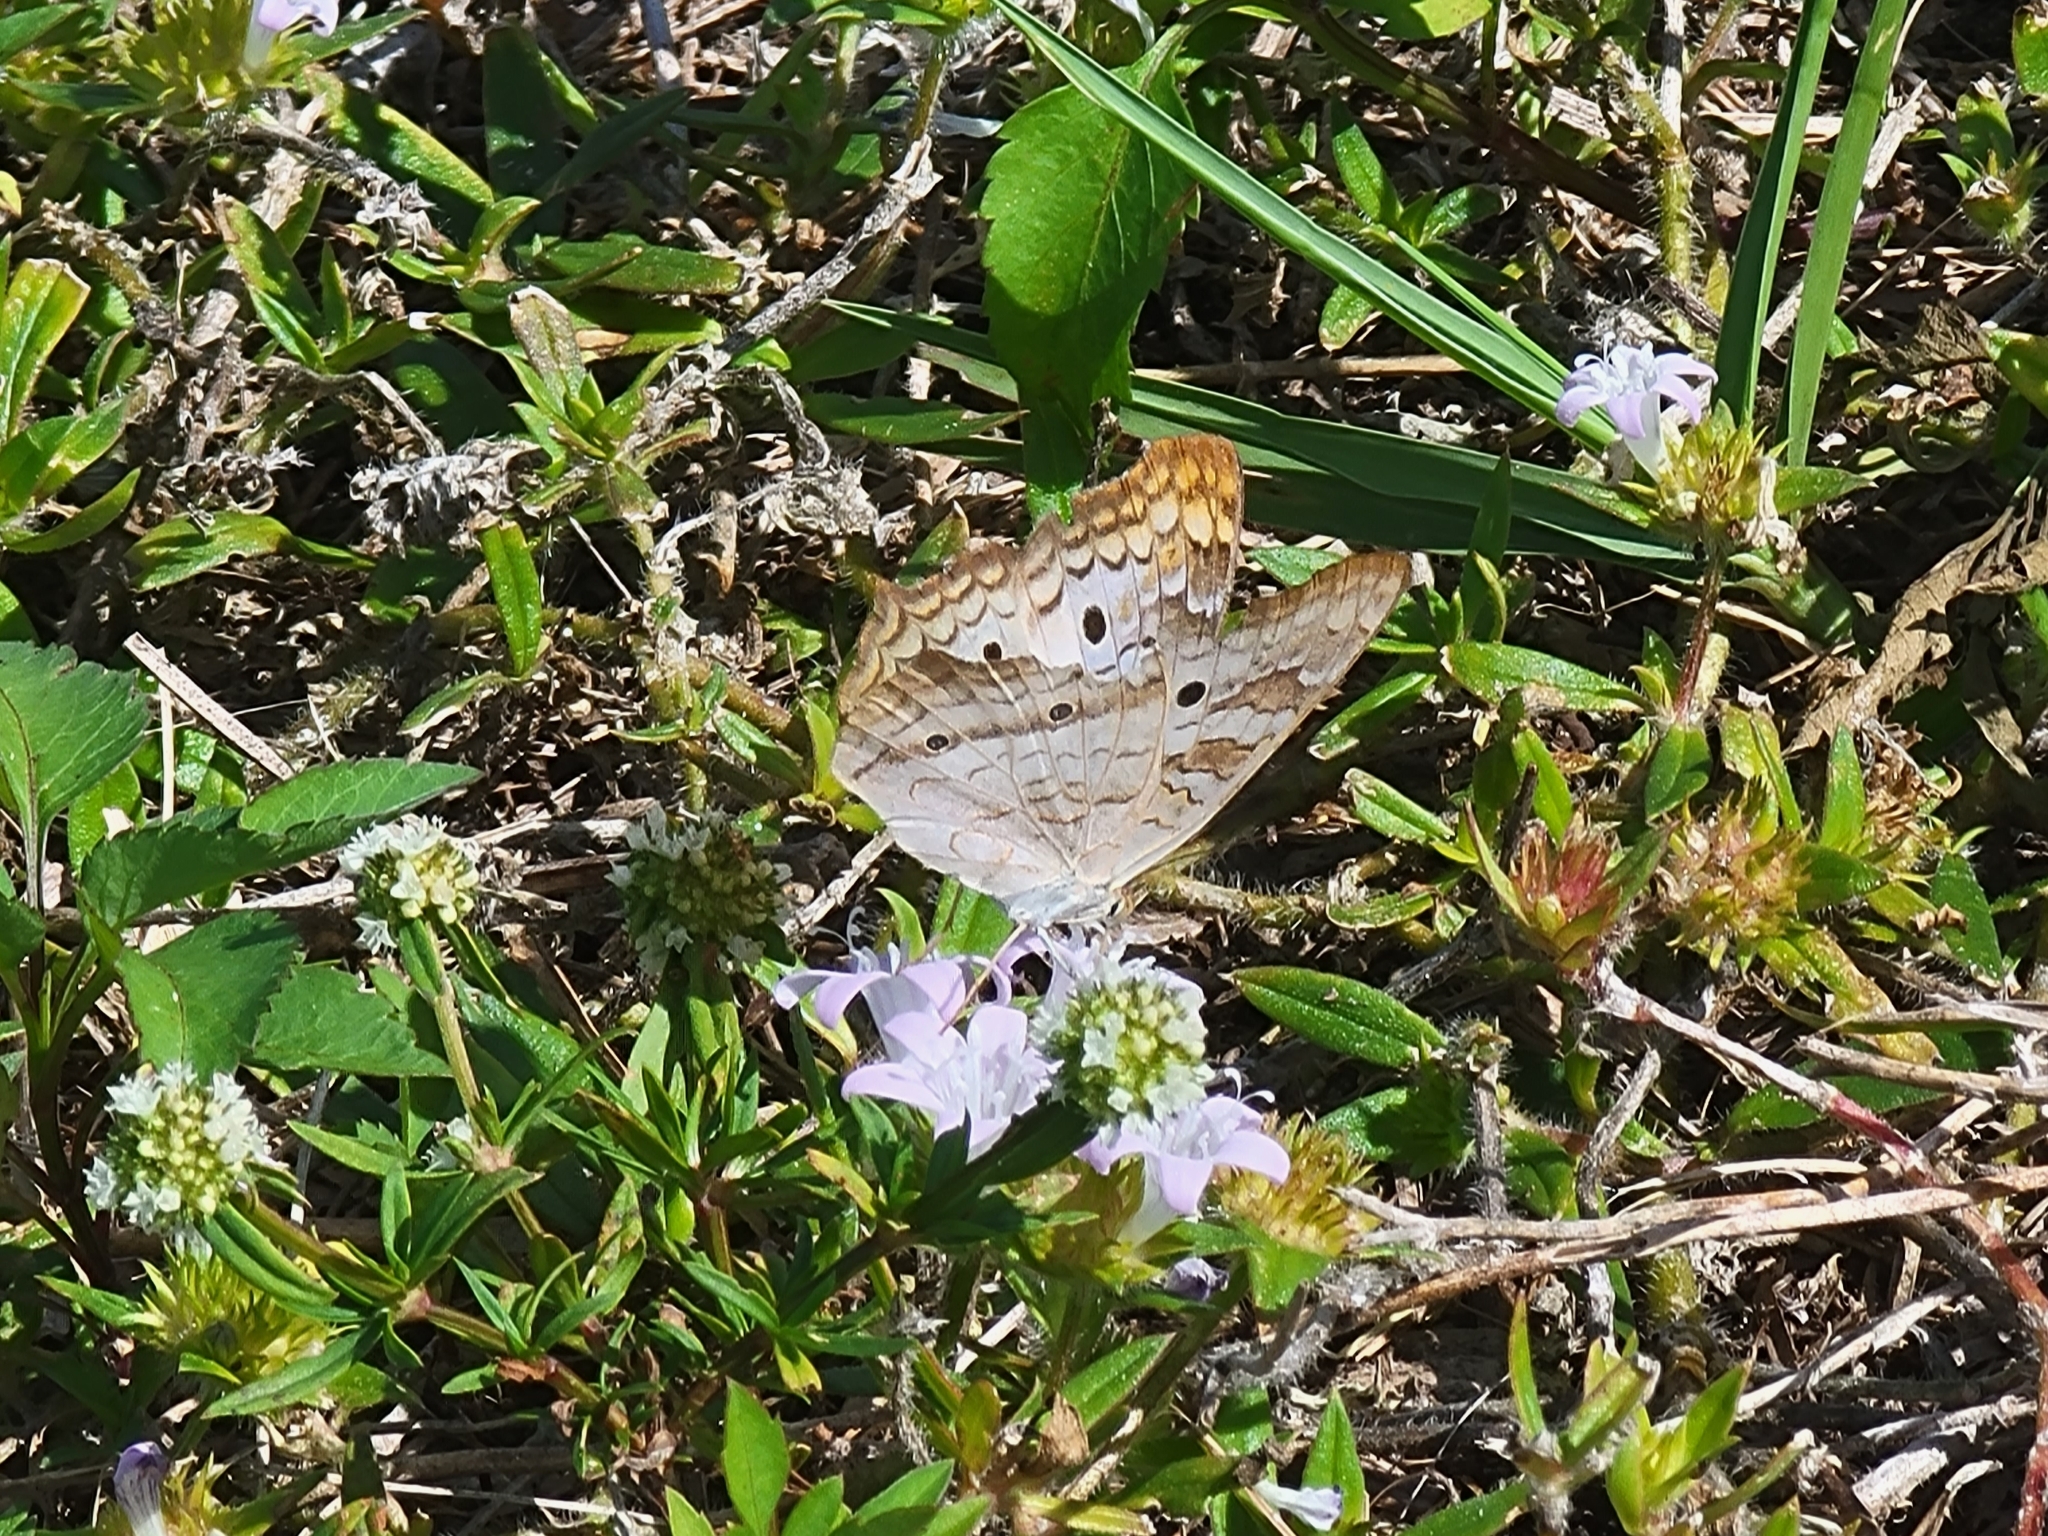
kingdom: Animalia
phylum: Arthropoda
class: Insecta
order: Lepidoptera
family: Nymphalidae
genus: Anartia
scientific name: Anartia jatrophae
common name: White peacock
